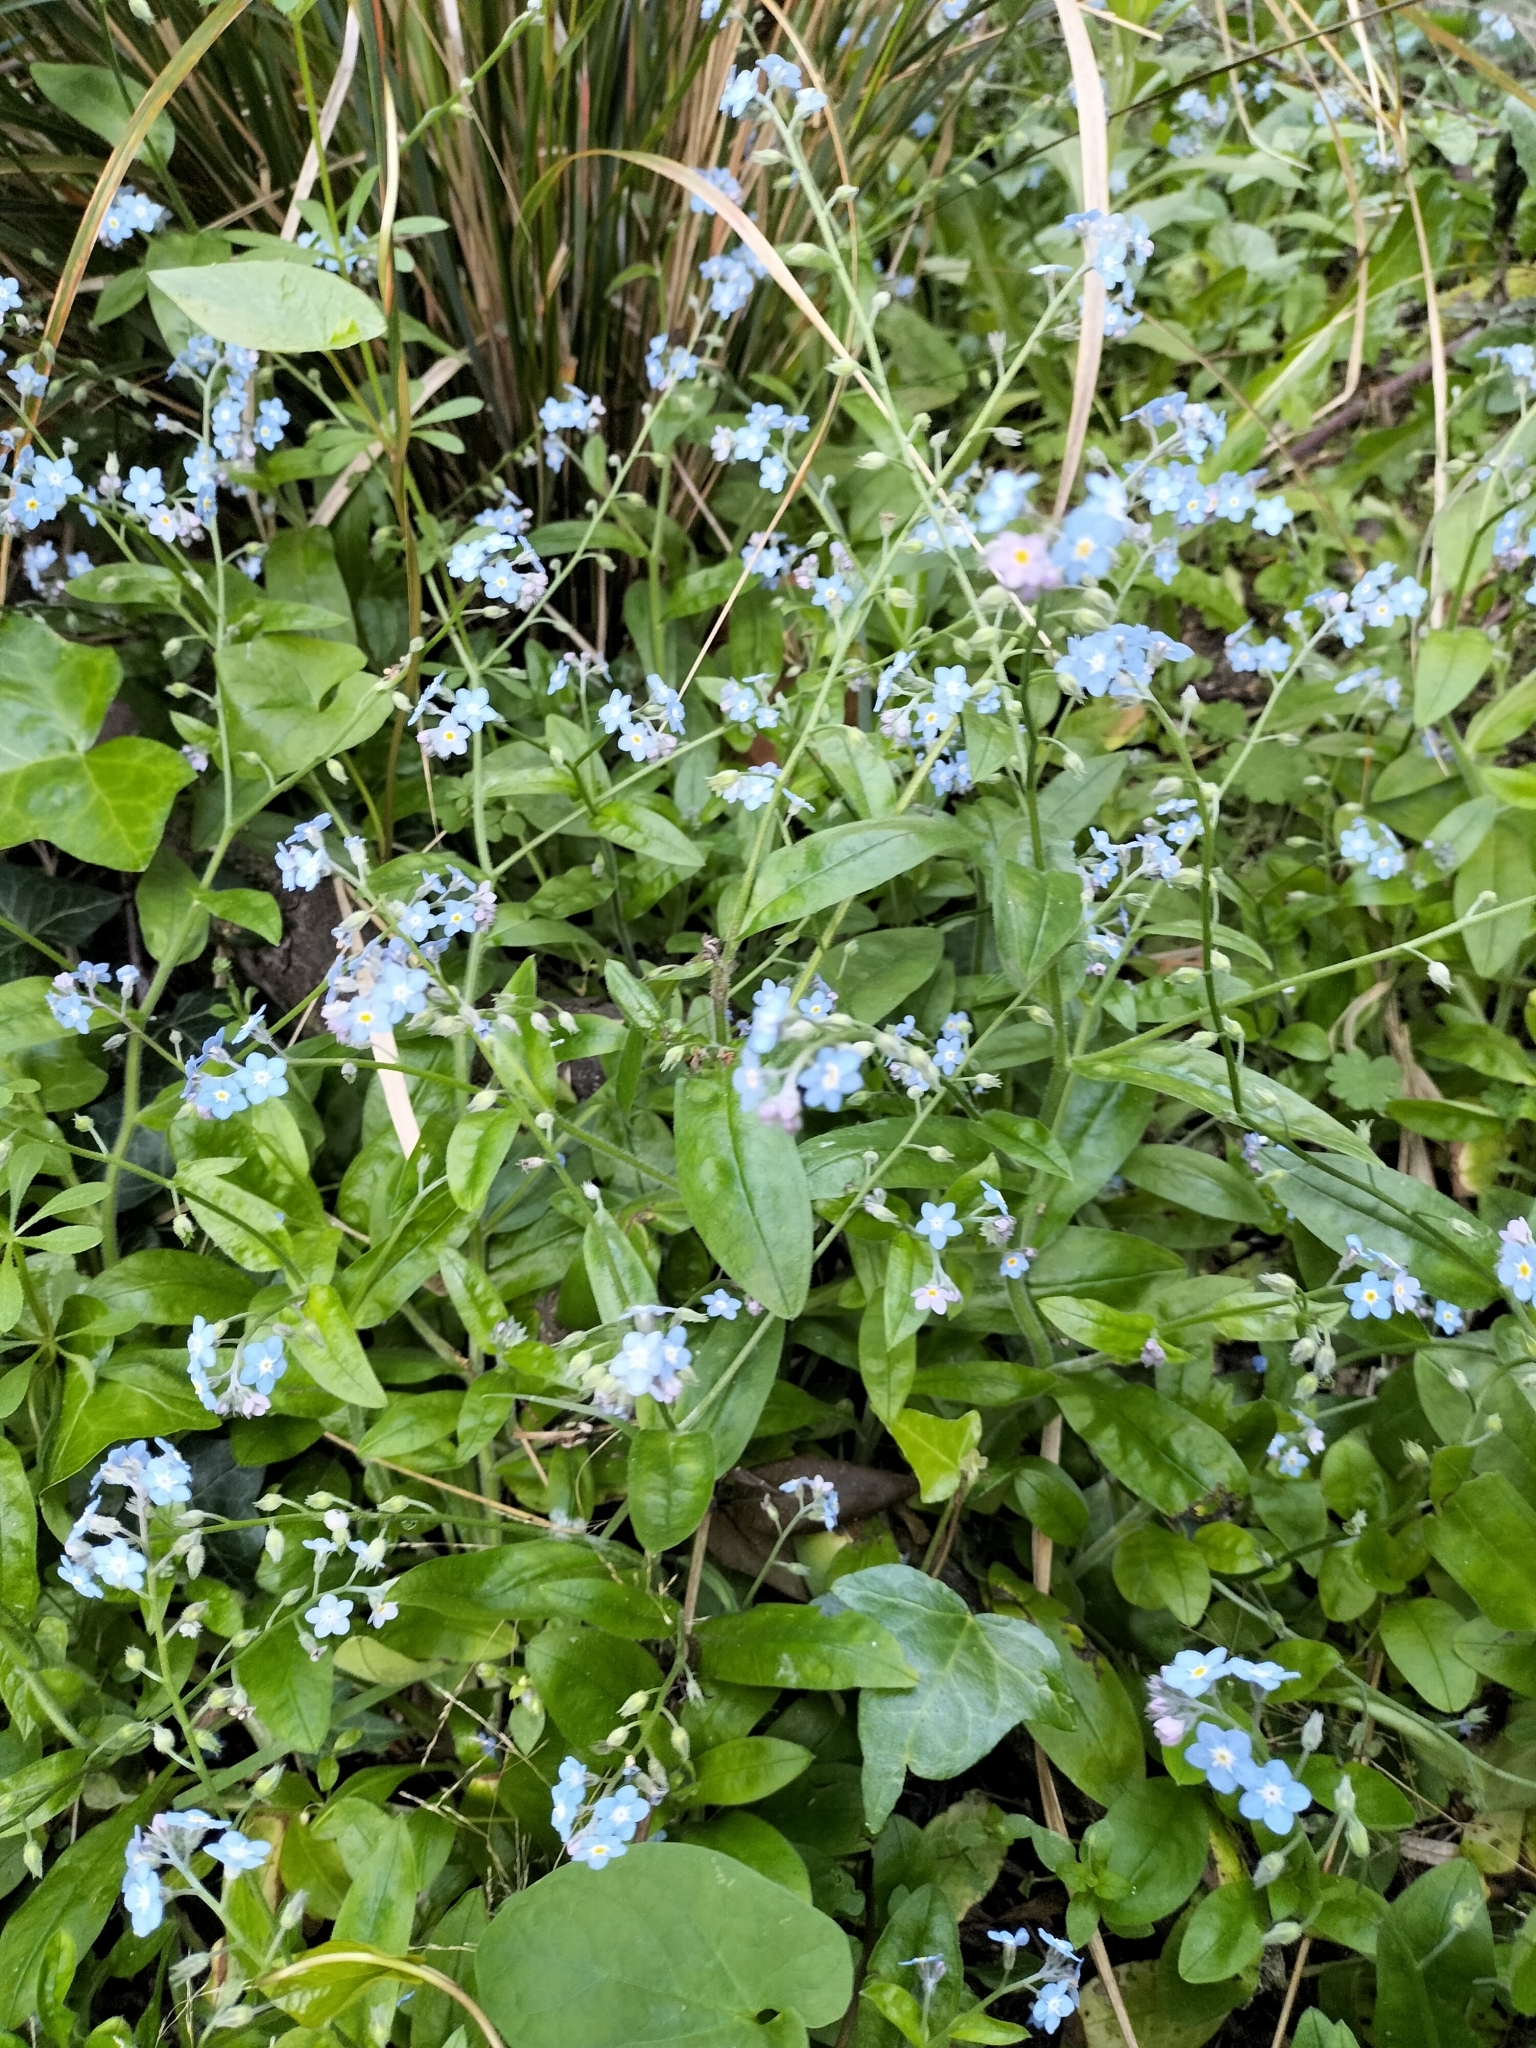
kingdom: Plantae
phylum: Tracheophyta
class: Magnoliopsida
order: Boraginales
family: Boraginaceae
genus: Myosotis
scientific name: Myosotis sylvatica
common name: Wood forget-me-not
